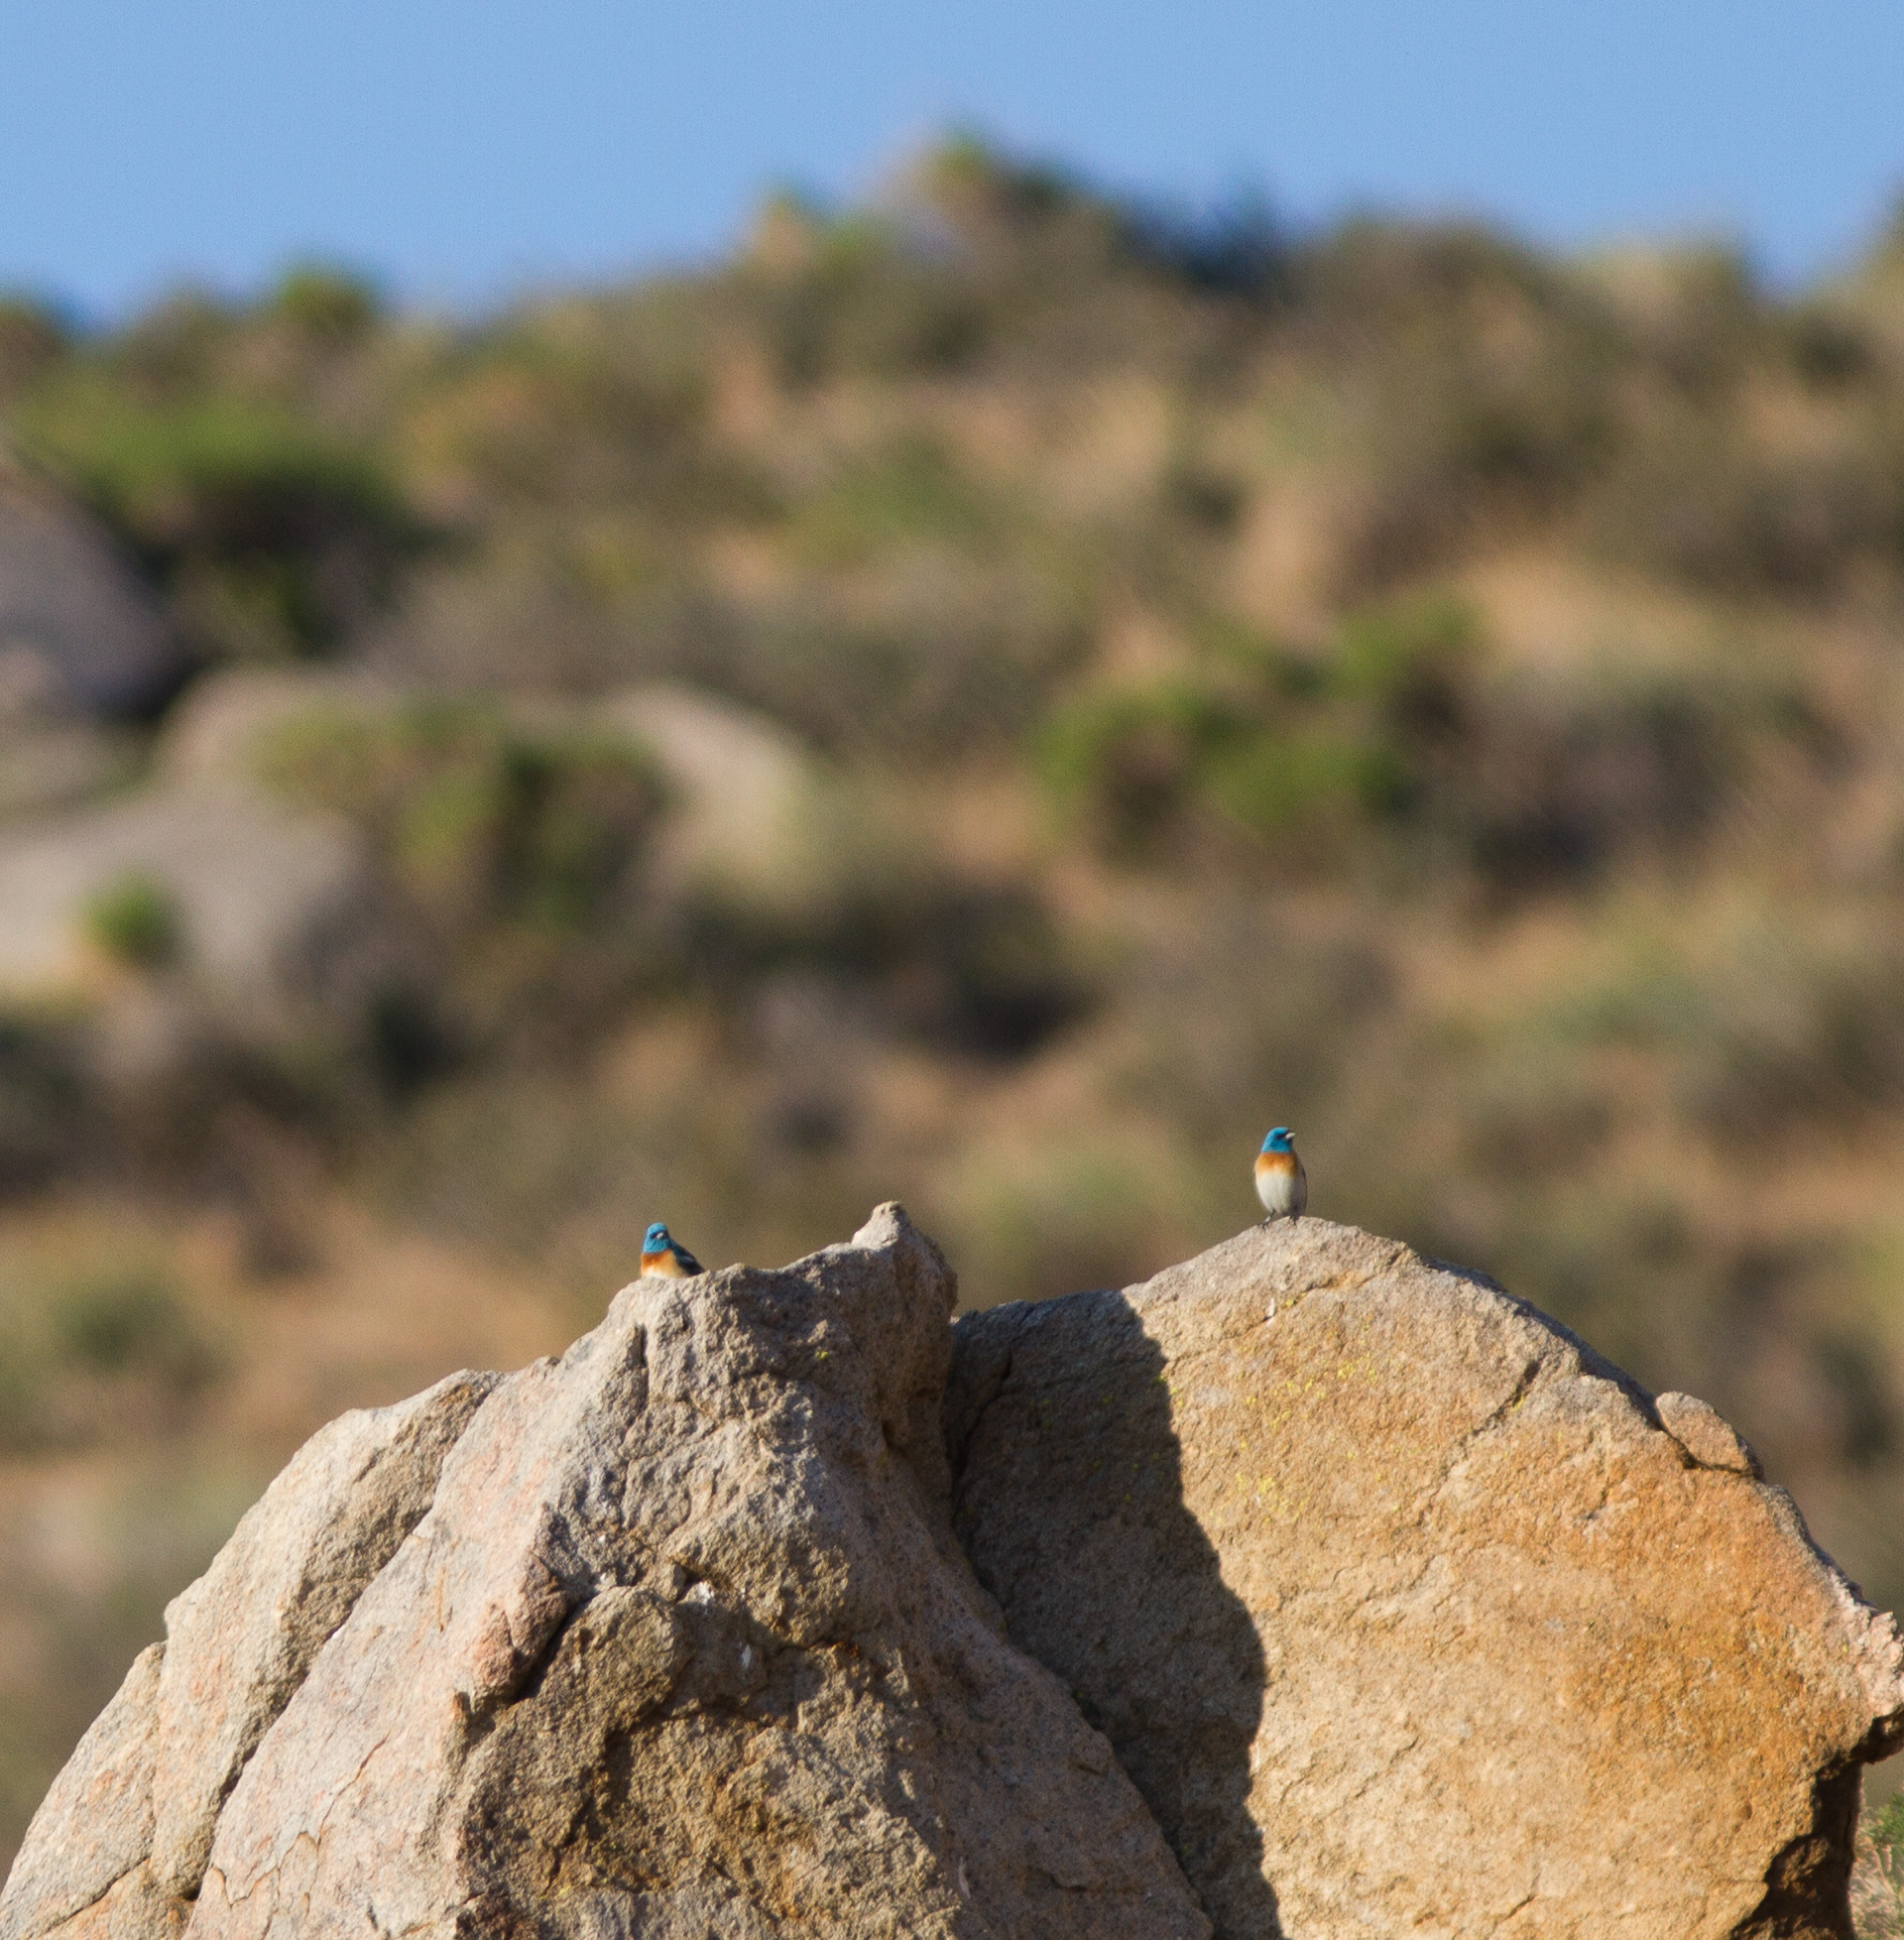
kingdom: Animalia
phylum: Chordata
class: Aves
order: Passeriformes
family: Cardinalidae
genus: Passerina
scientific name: Passerina amoena
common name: Lazuli bunting
